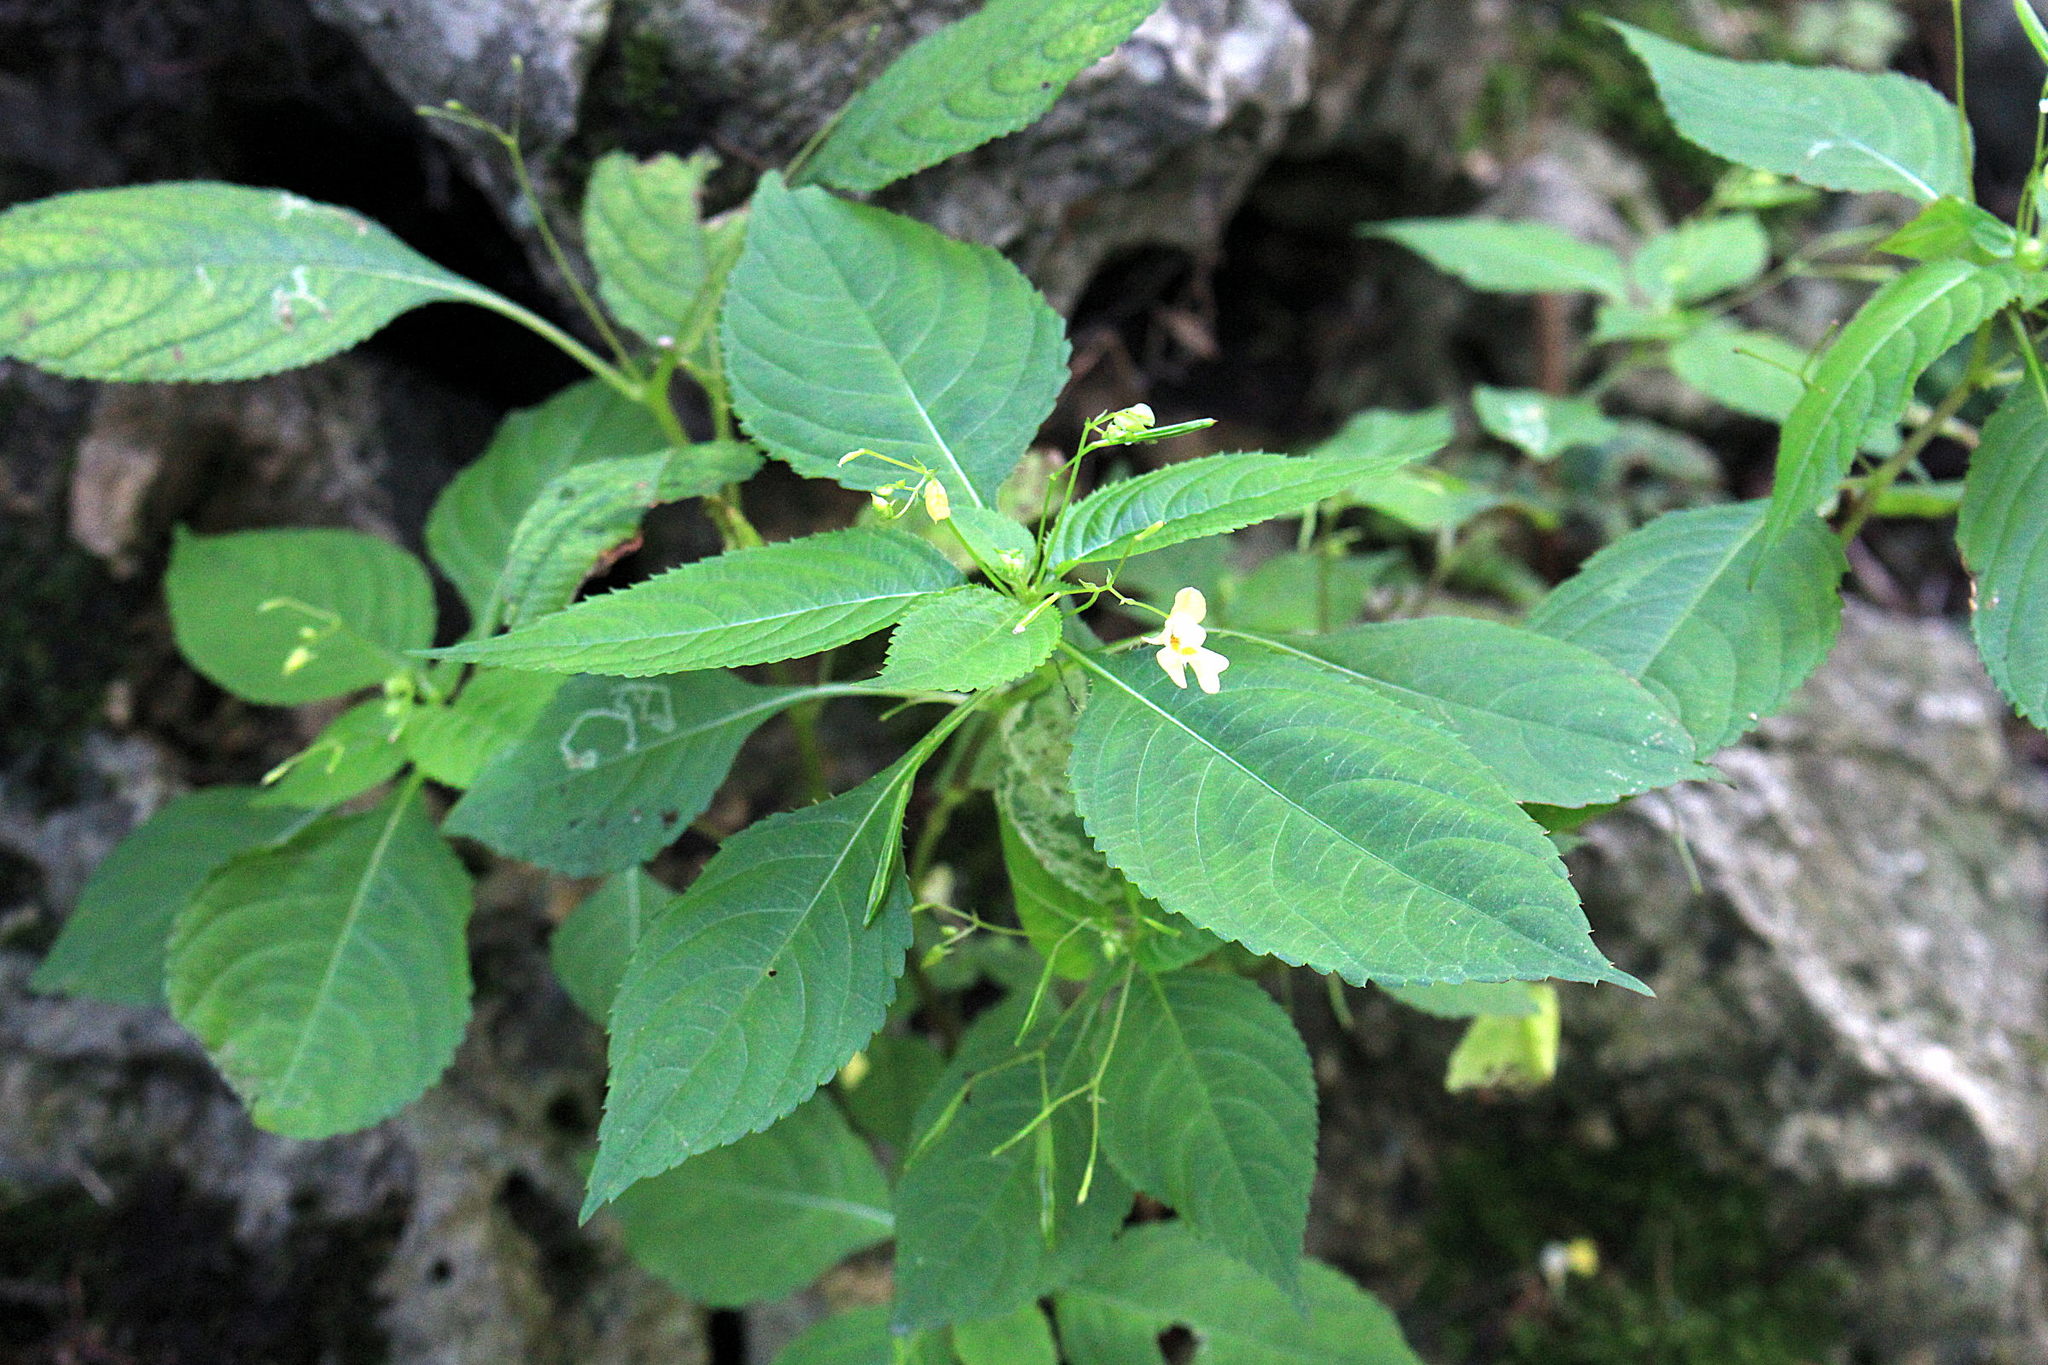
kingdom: Plantae
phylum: Tracheophyta
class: Magnoliopsida
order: Ericales
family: Balsaminaceae
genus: Impatiens
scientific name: Impatiens parviflora
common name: Small balsam
